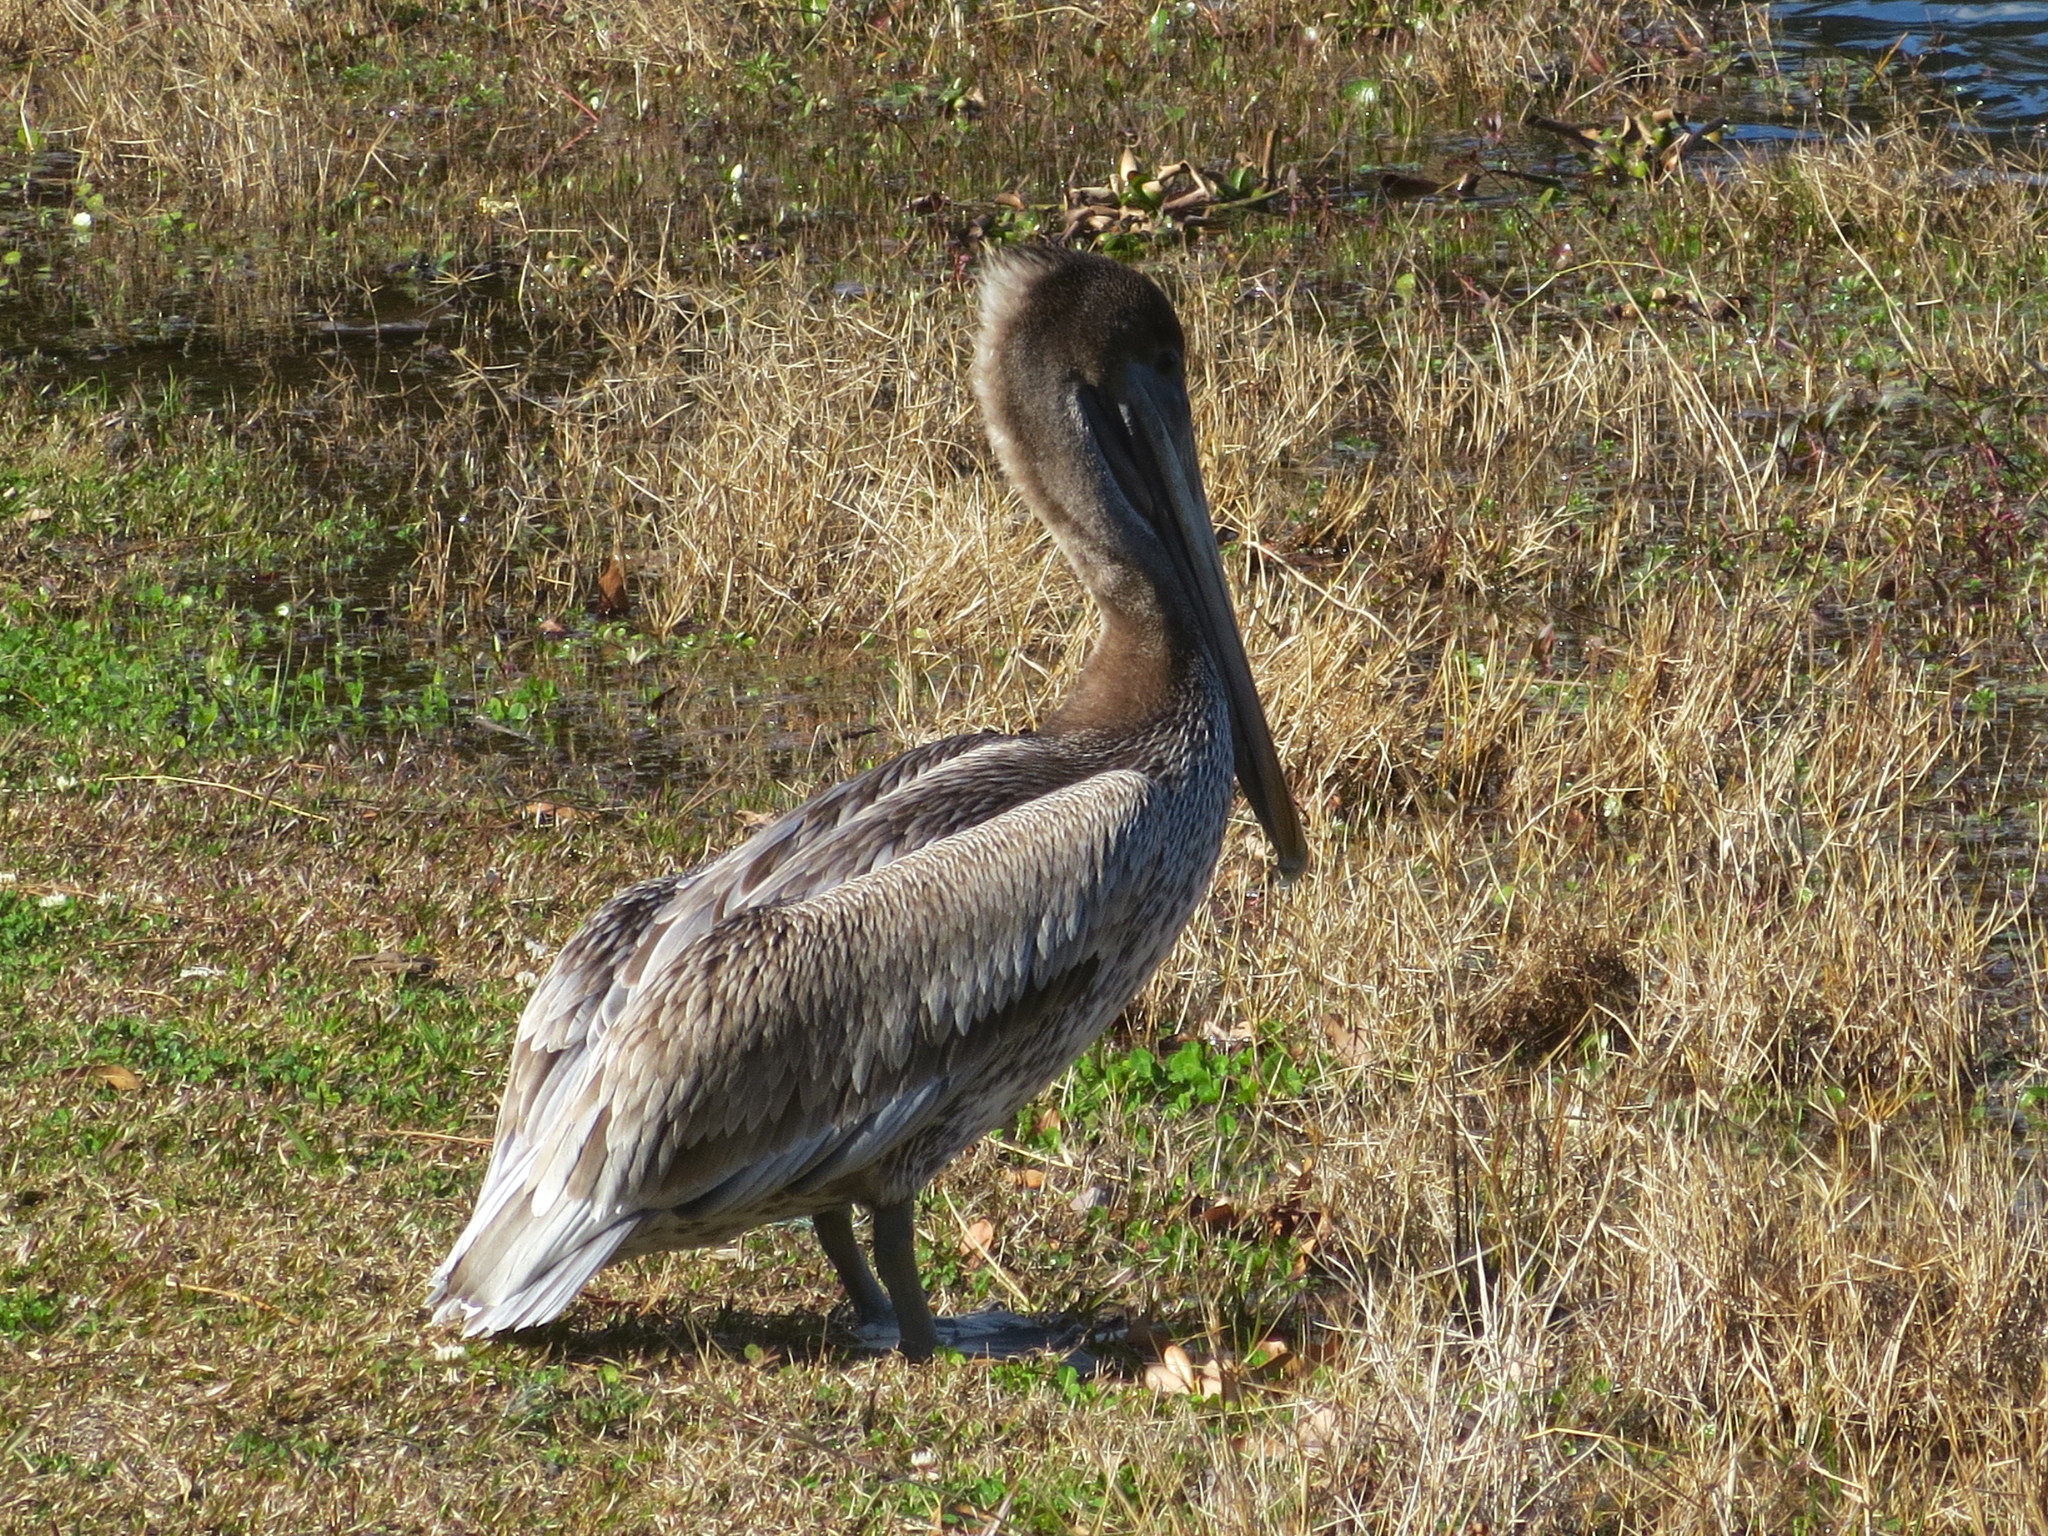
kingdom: Animalia
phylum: Chordata
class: Aves
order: Pelecaniformes
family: Pelecanidae
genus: Pelecanus
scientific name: Pelecanus occidentalis
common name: Brown pelican
